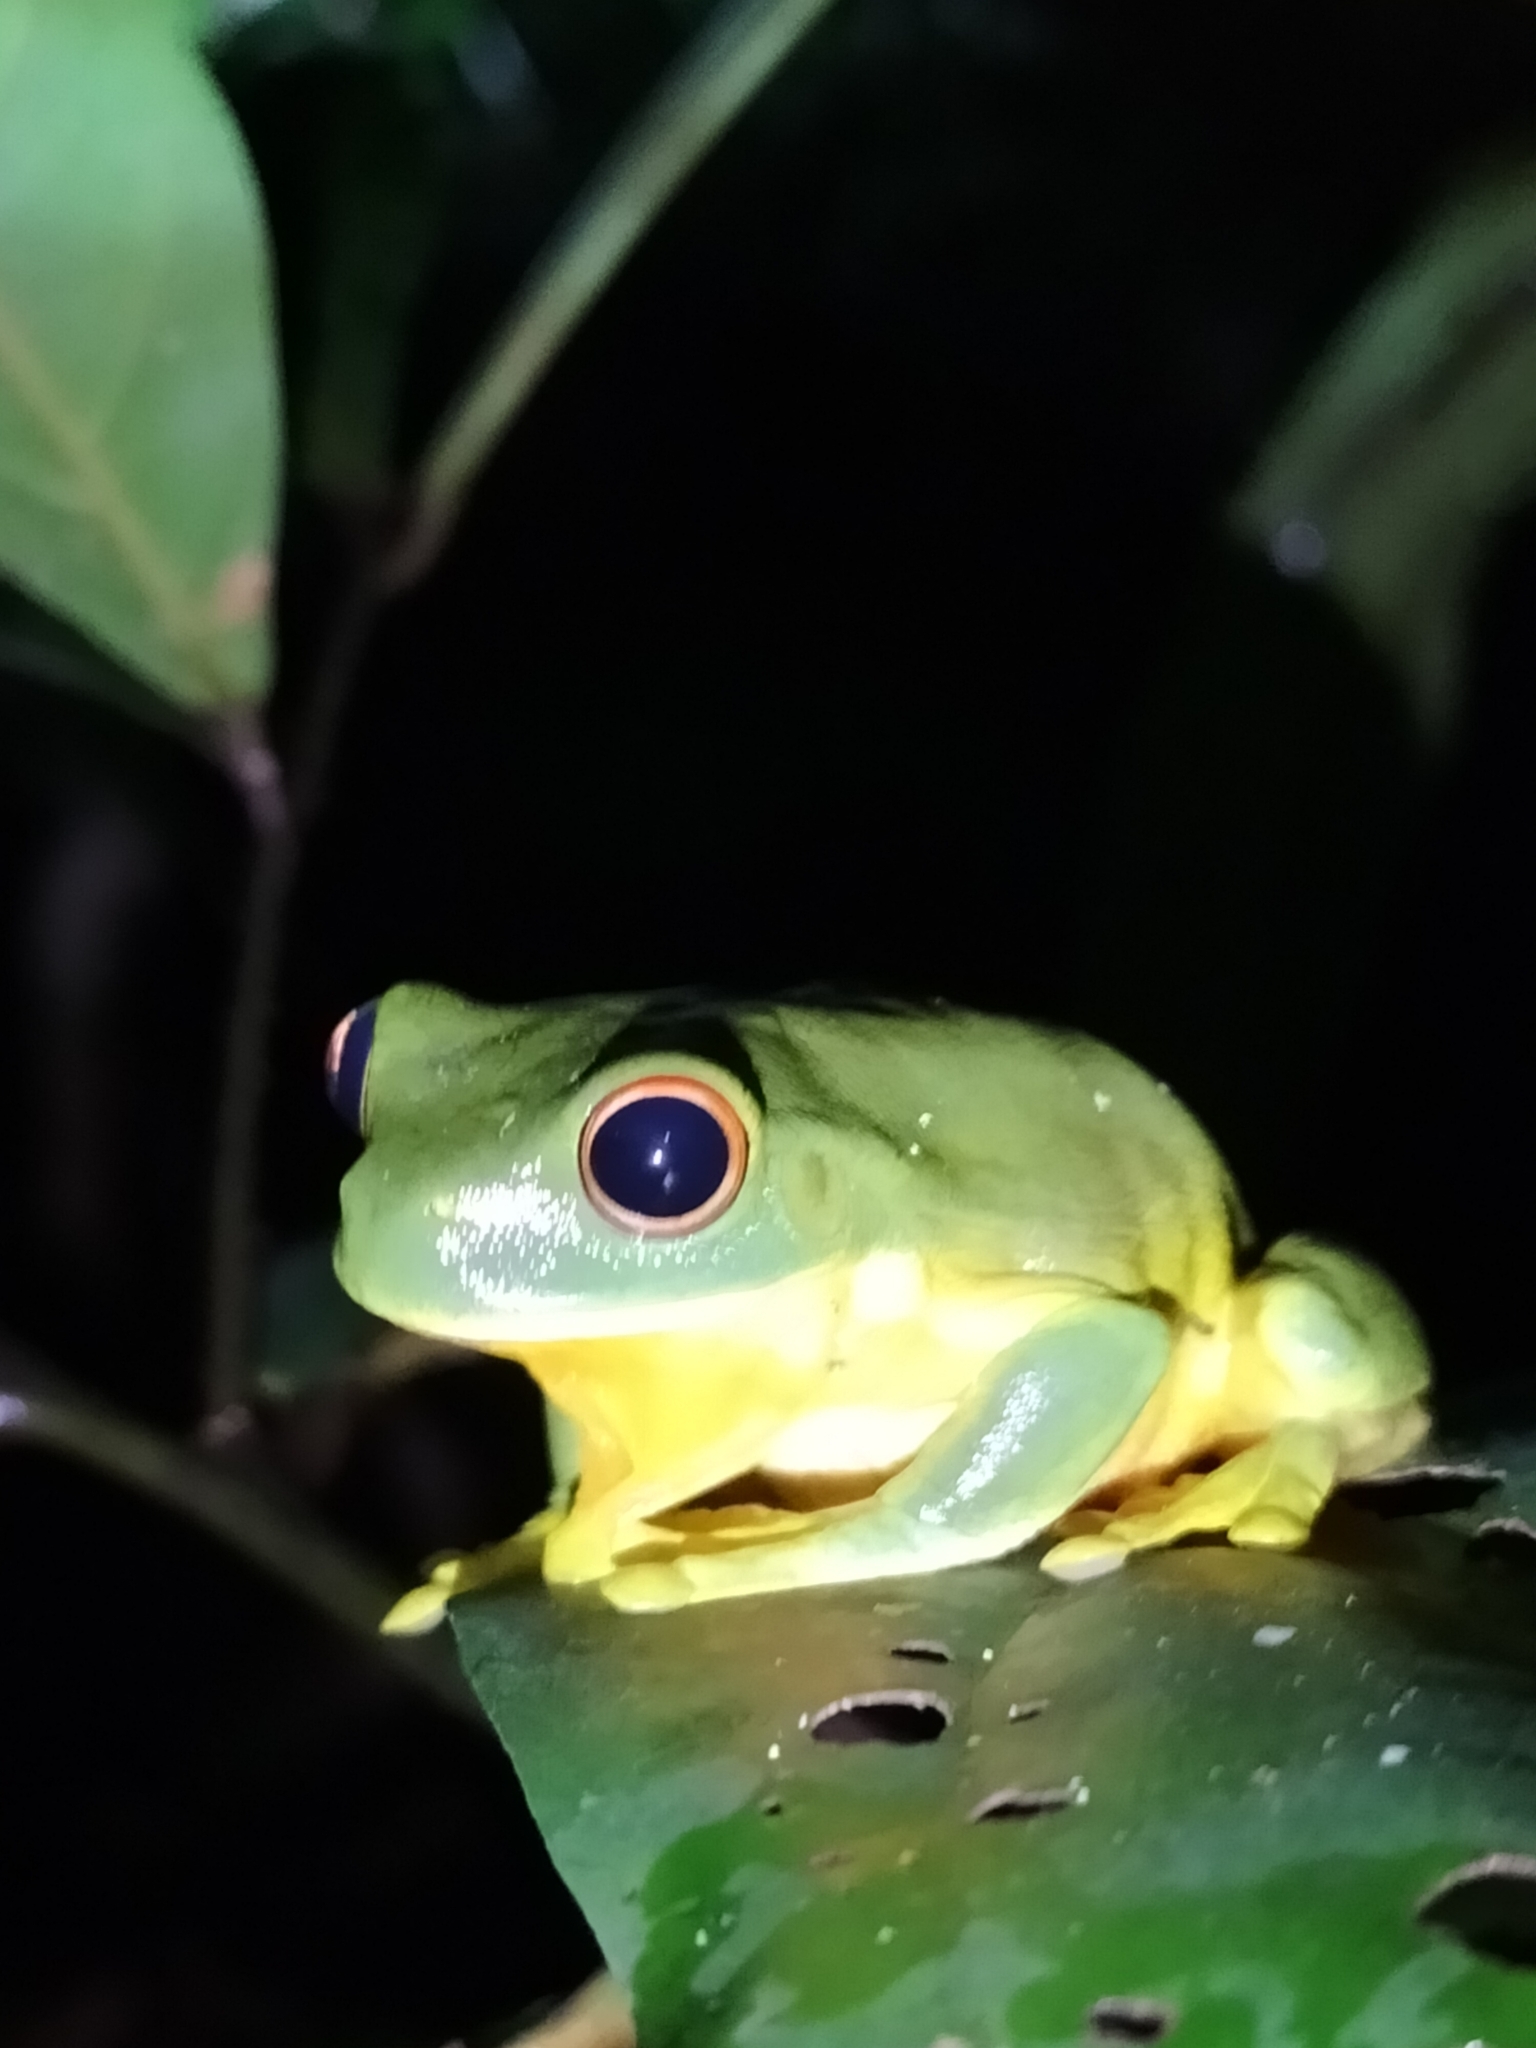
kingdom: Animalia
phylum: Chordata
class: Amphibia
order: Anura
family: Pelodryadidae
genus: Ranoidea
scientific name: Ranoidea xanthomera
